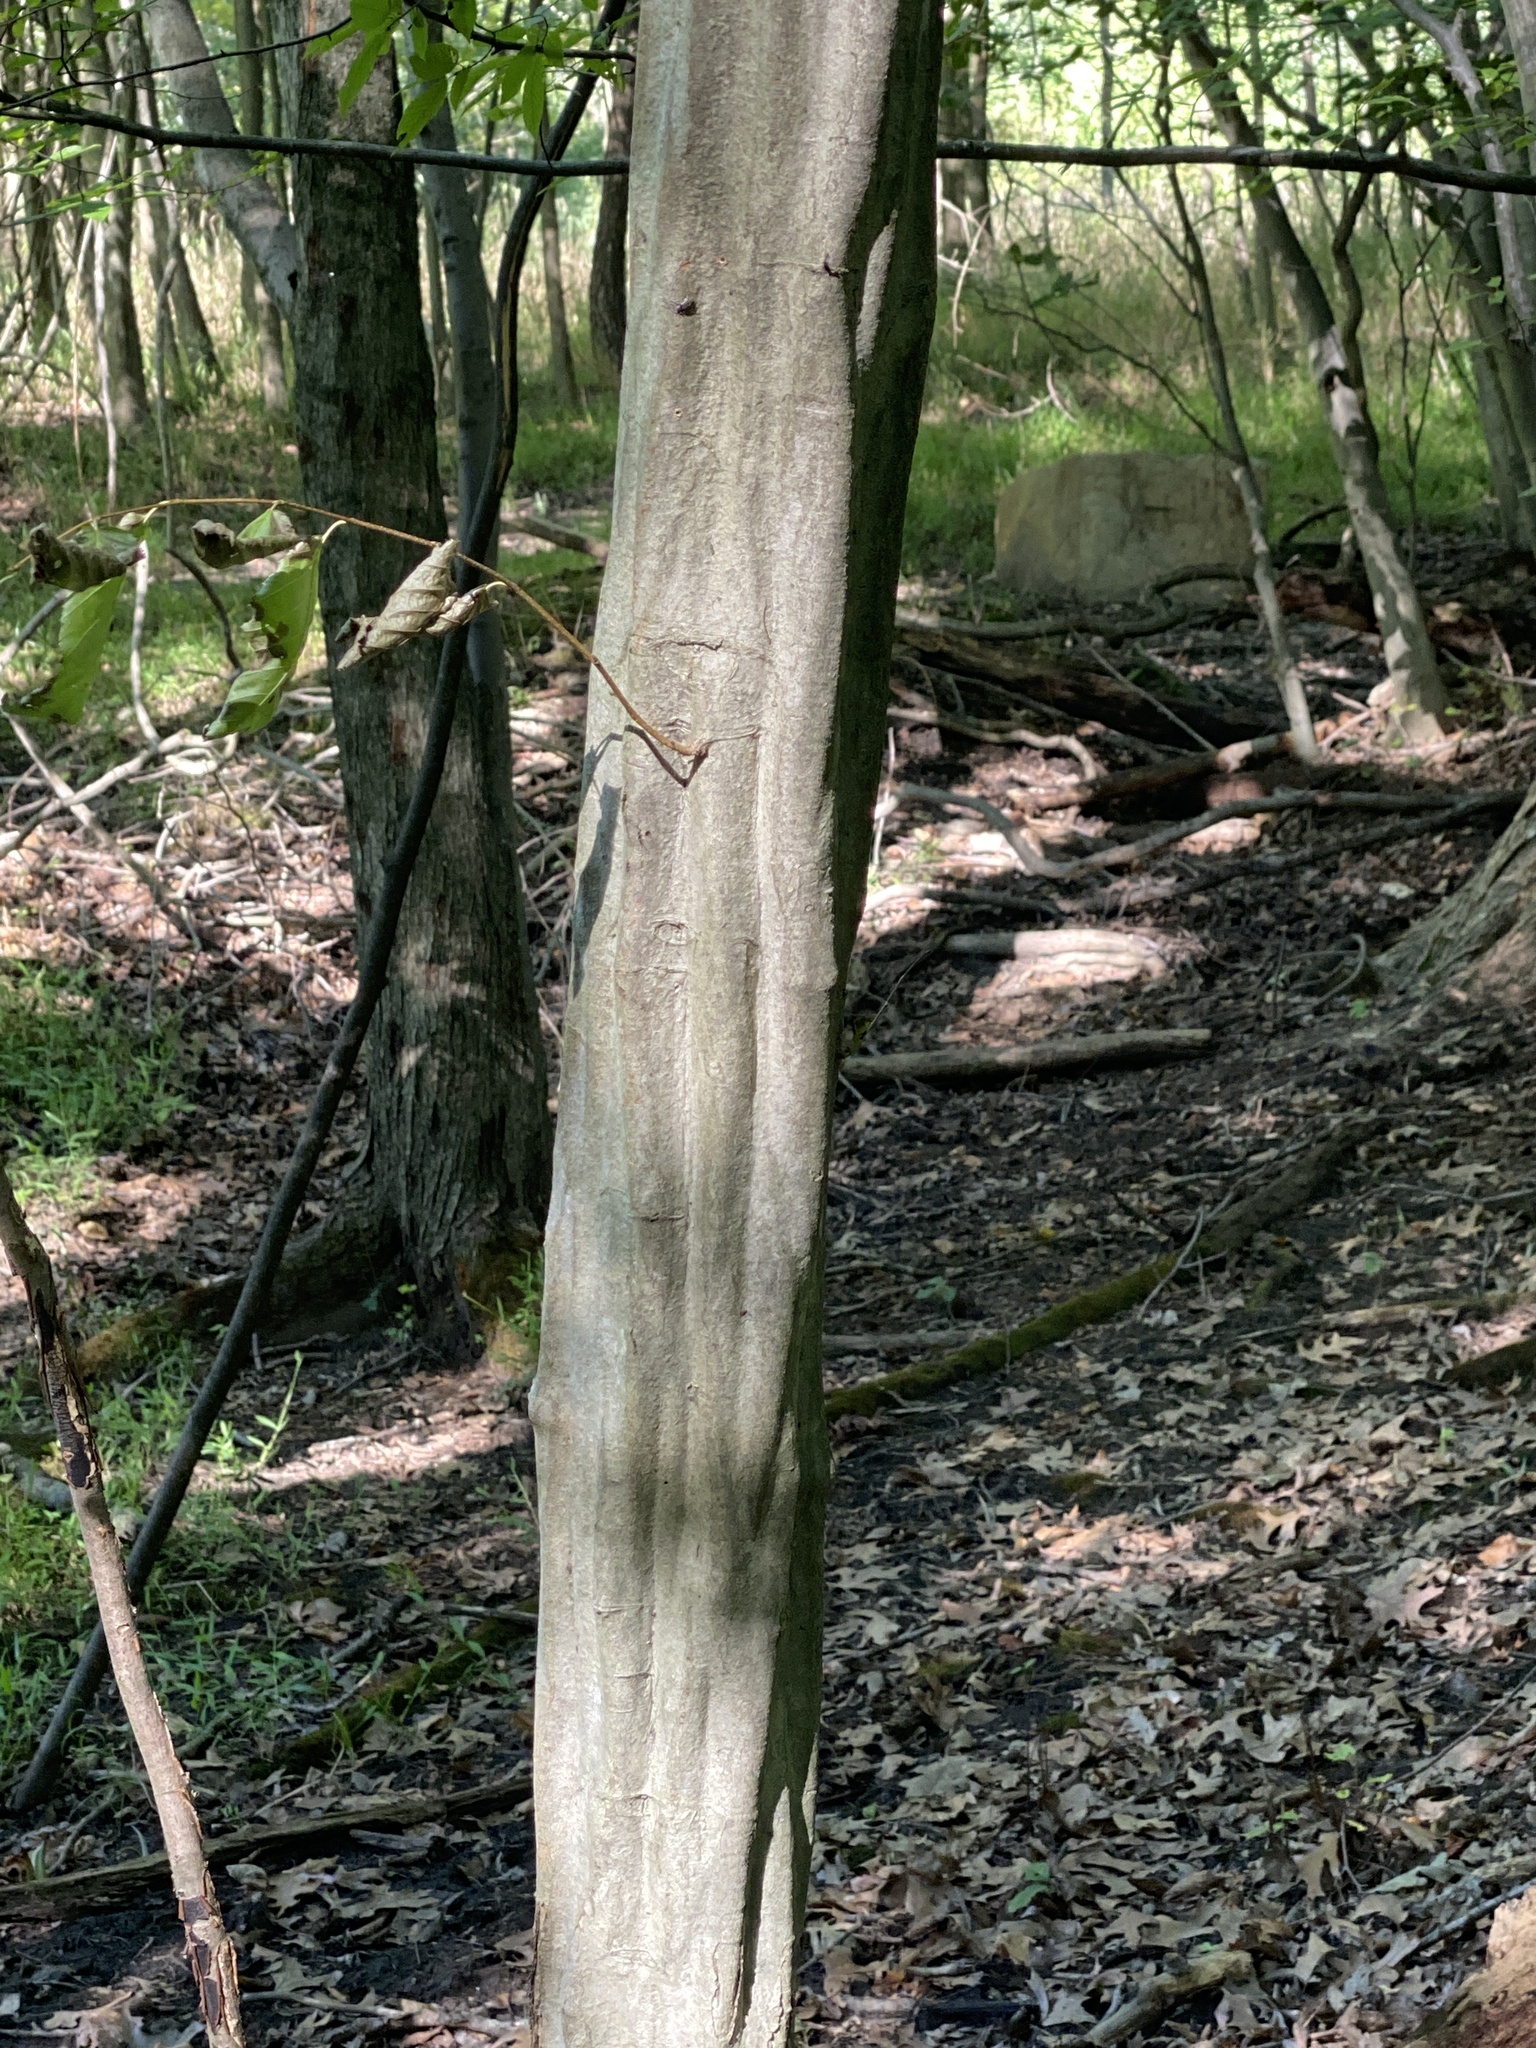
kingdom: Plantae
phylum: Tracheophyta
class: Magnoliopsida
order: Fagales
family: Betulaceae
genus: Carpinus
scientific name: Carpinus caroliniana
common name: American hornbeam
